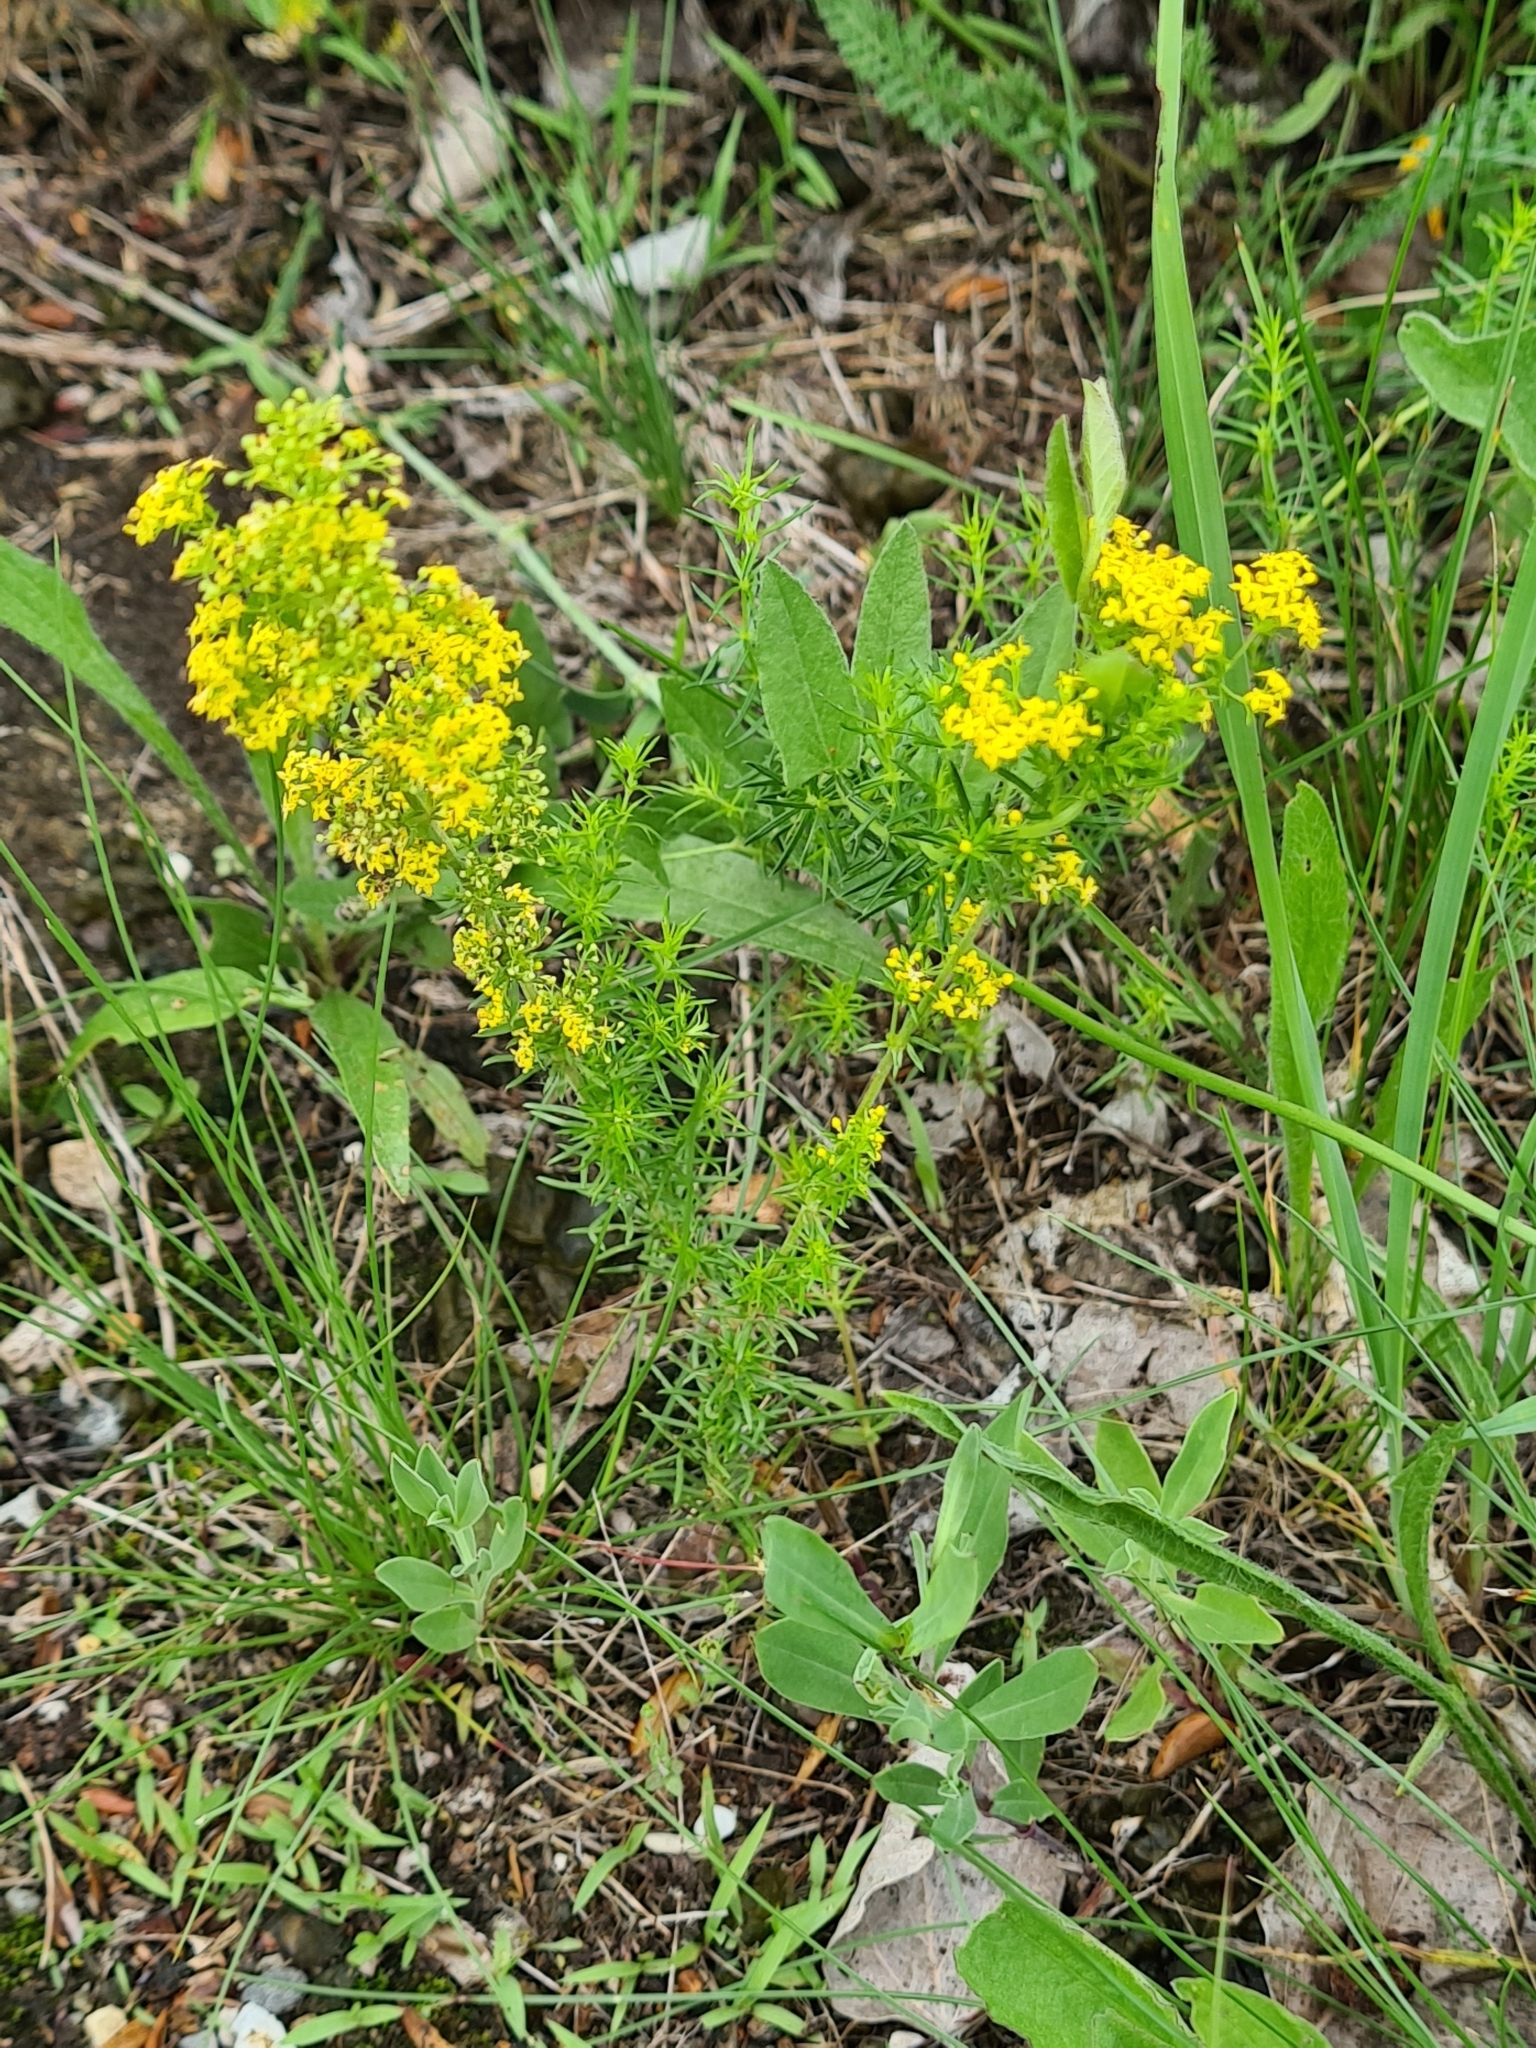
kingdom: Plantae
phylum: Tracheophyta
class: Magnoliopsida
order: Gentianales
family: Rubiaceae
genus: Galium
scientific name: Galium verum
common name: Lady's bedstraw
